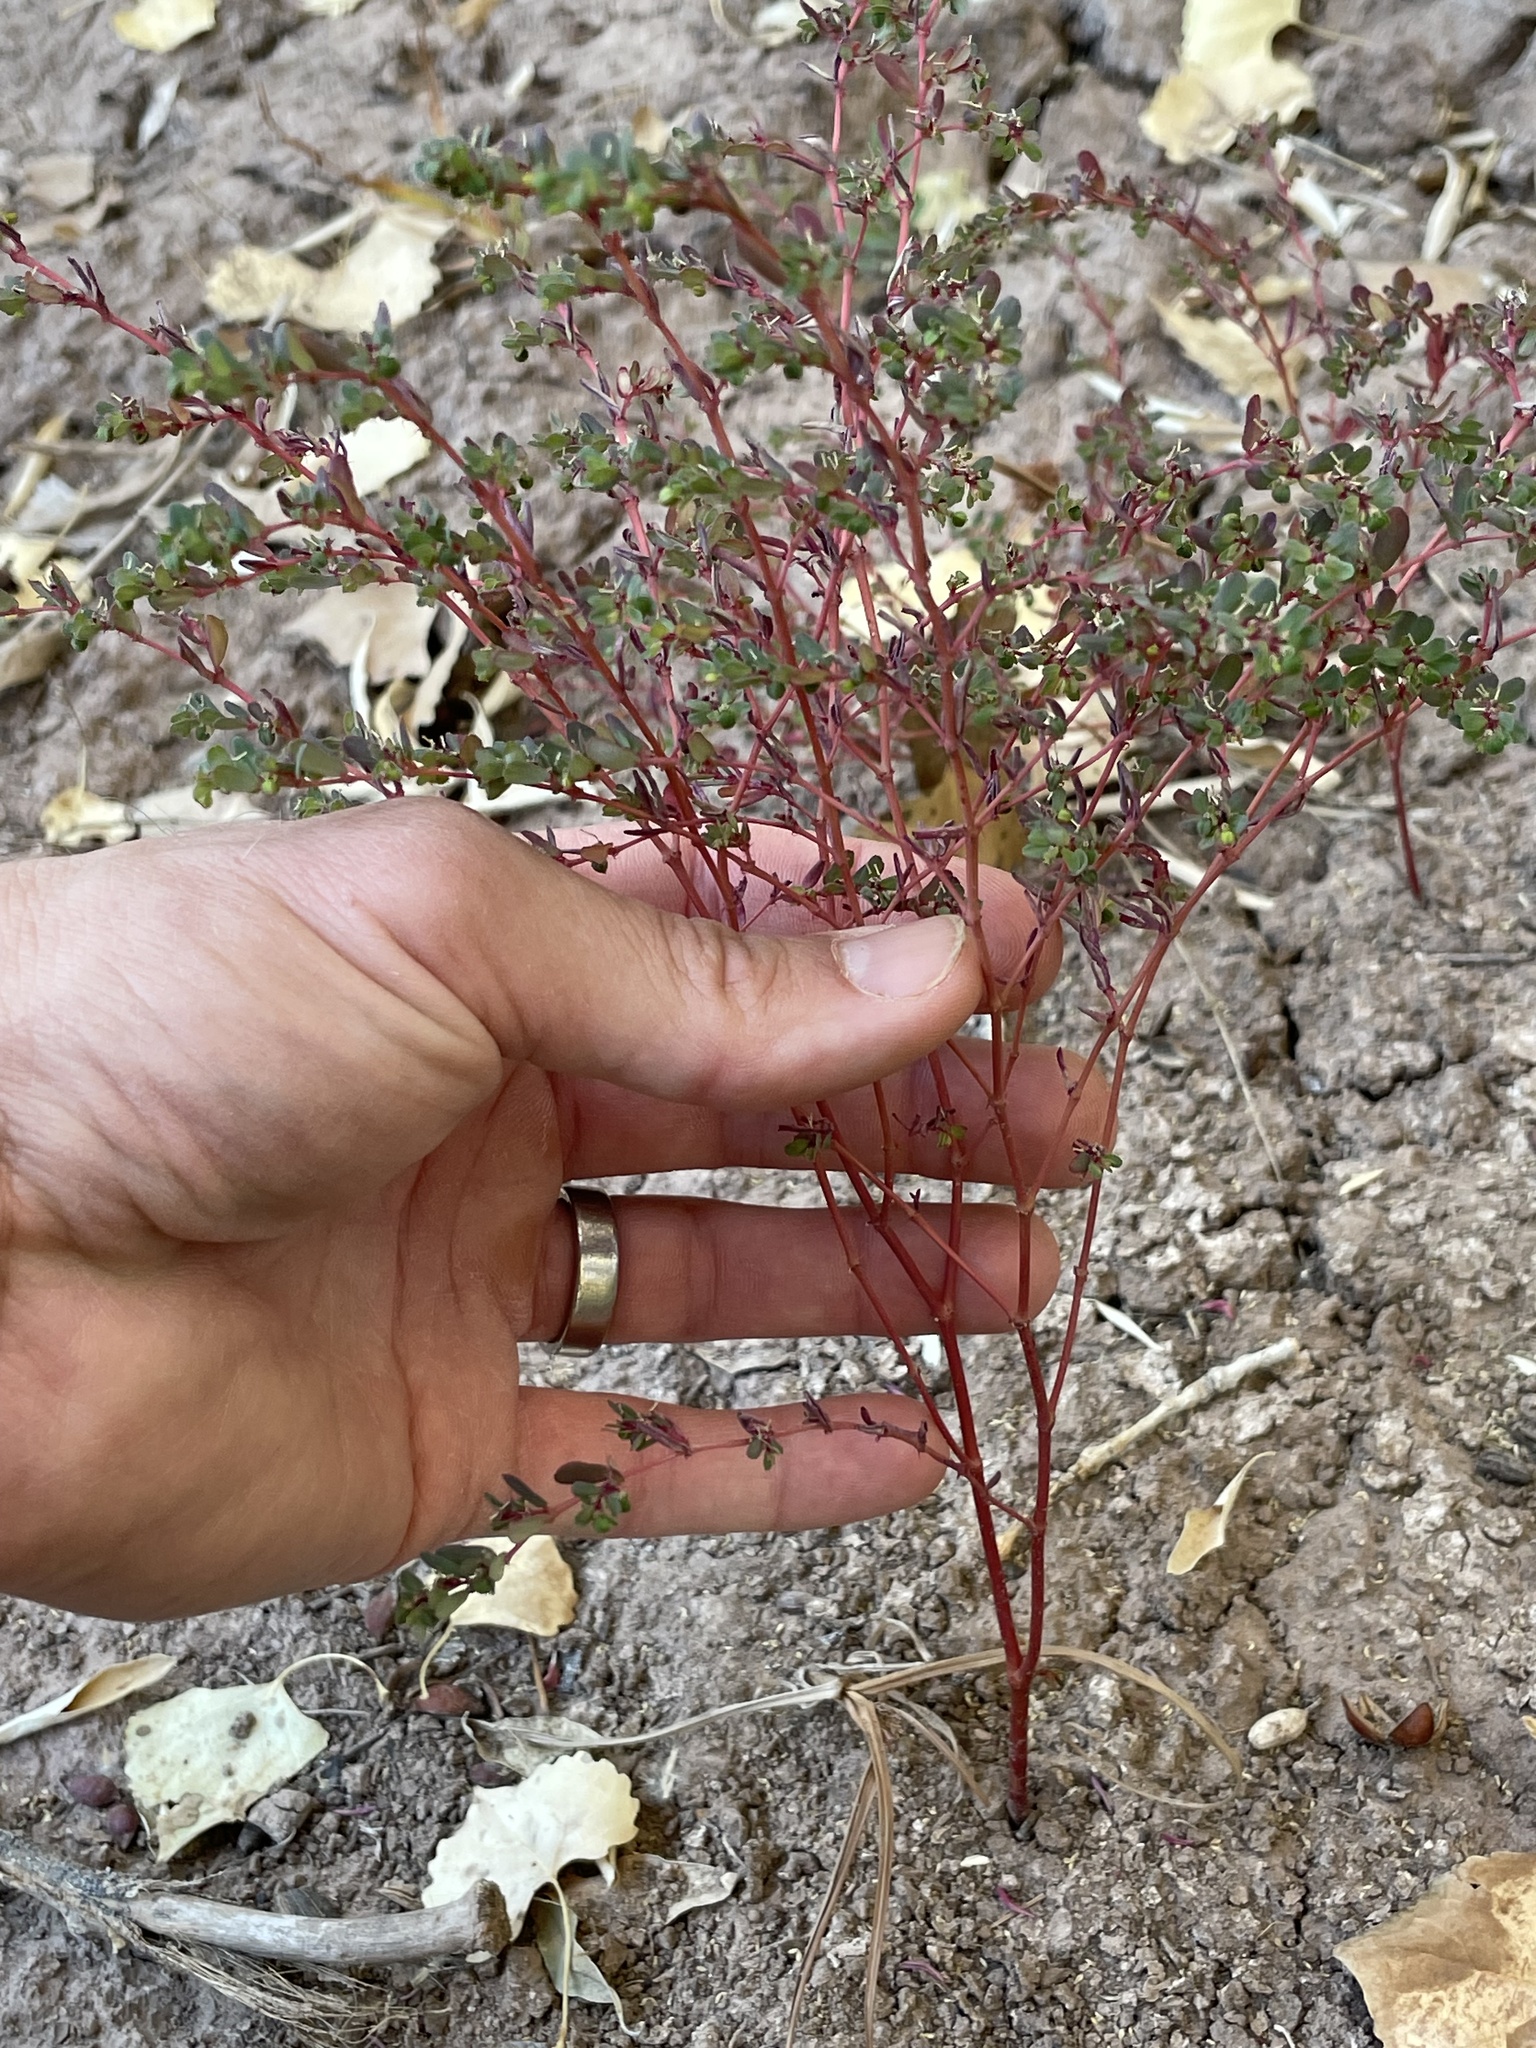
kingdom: Plantae
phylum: Tracheophyta
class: Magnoliopsida
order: Malpighiales
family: Euphorbiaceae
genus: Euphorbia
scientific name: Euphorbia serpillifolia
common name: Thyme-leaf spurge
